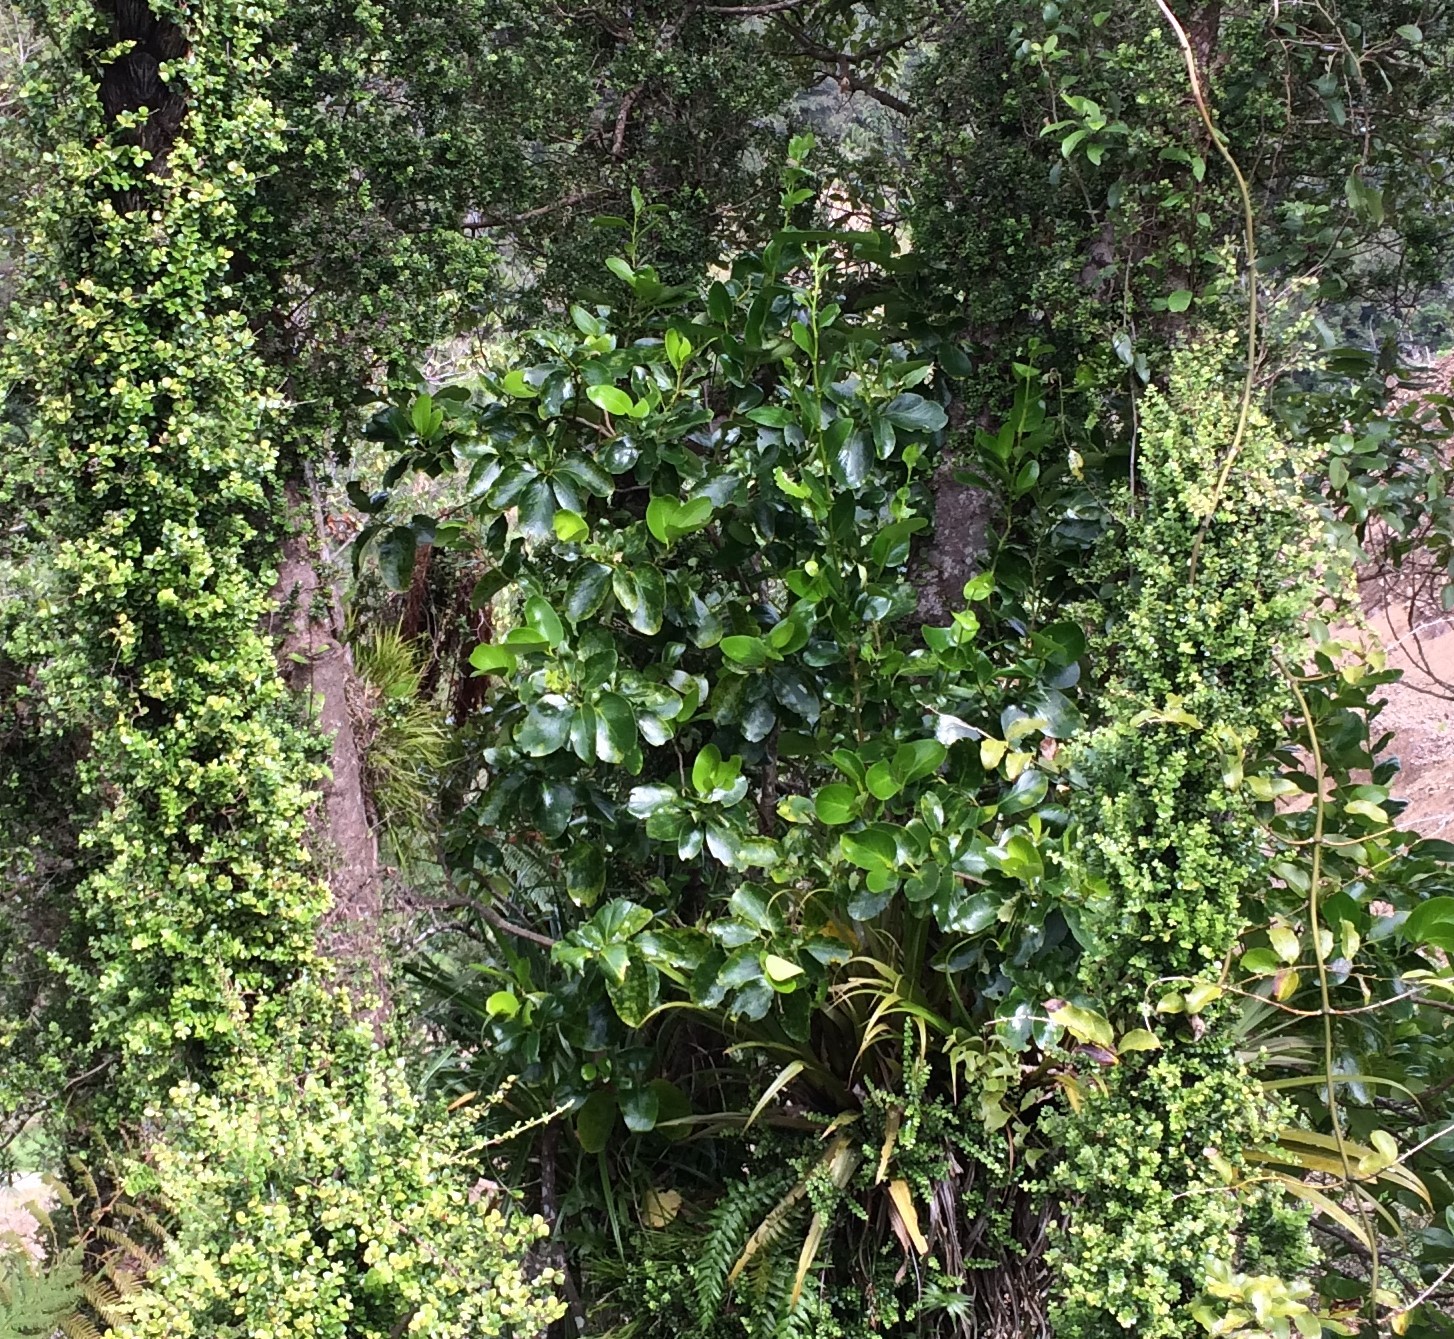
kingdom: Plantae
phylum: Tracheophyta
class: Magnoliopsida
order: Apiales
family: Griseliniaceae
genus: Griselinia
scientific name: Griselinia lucida
